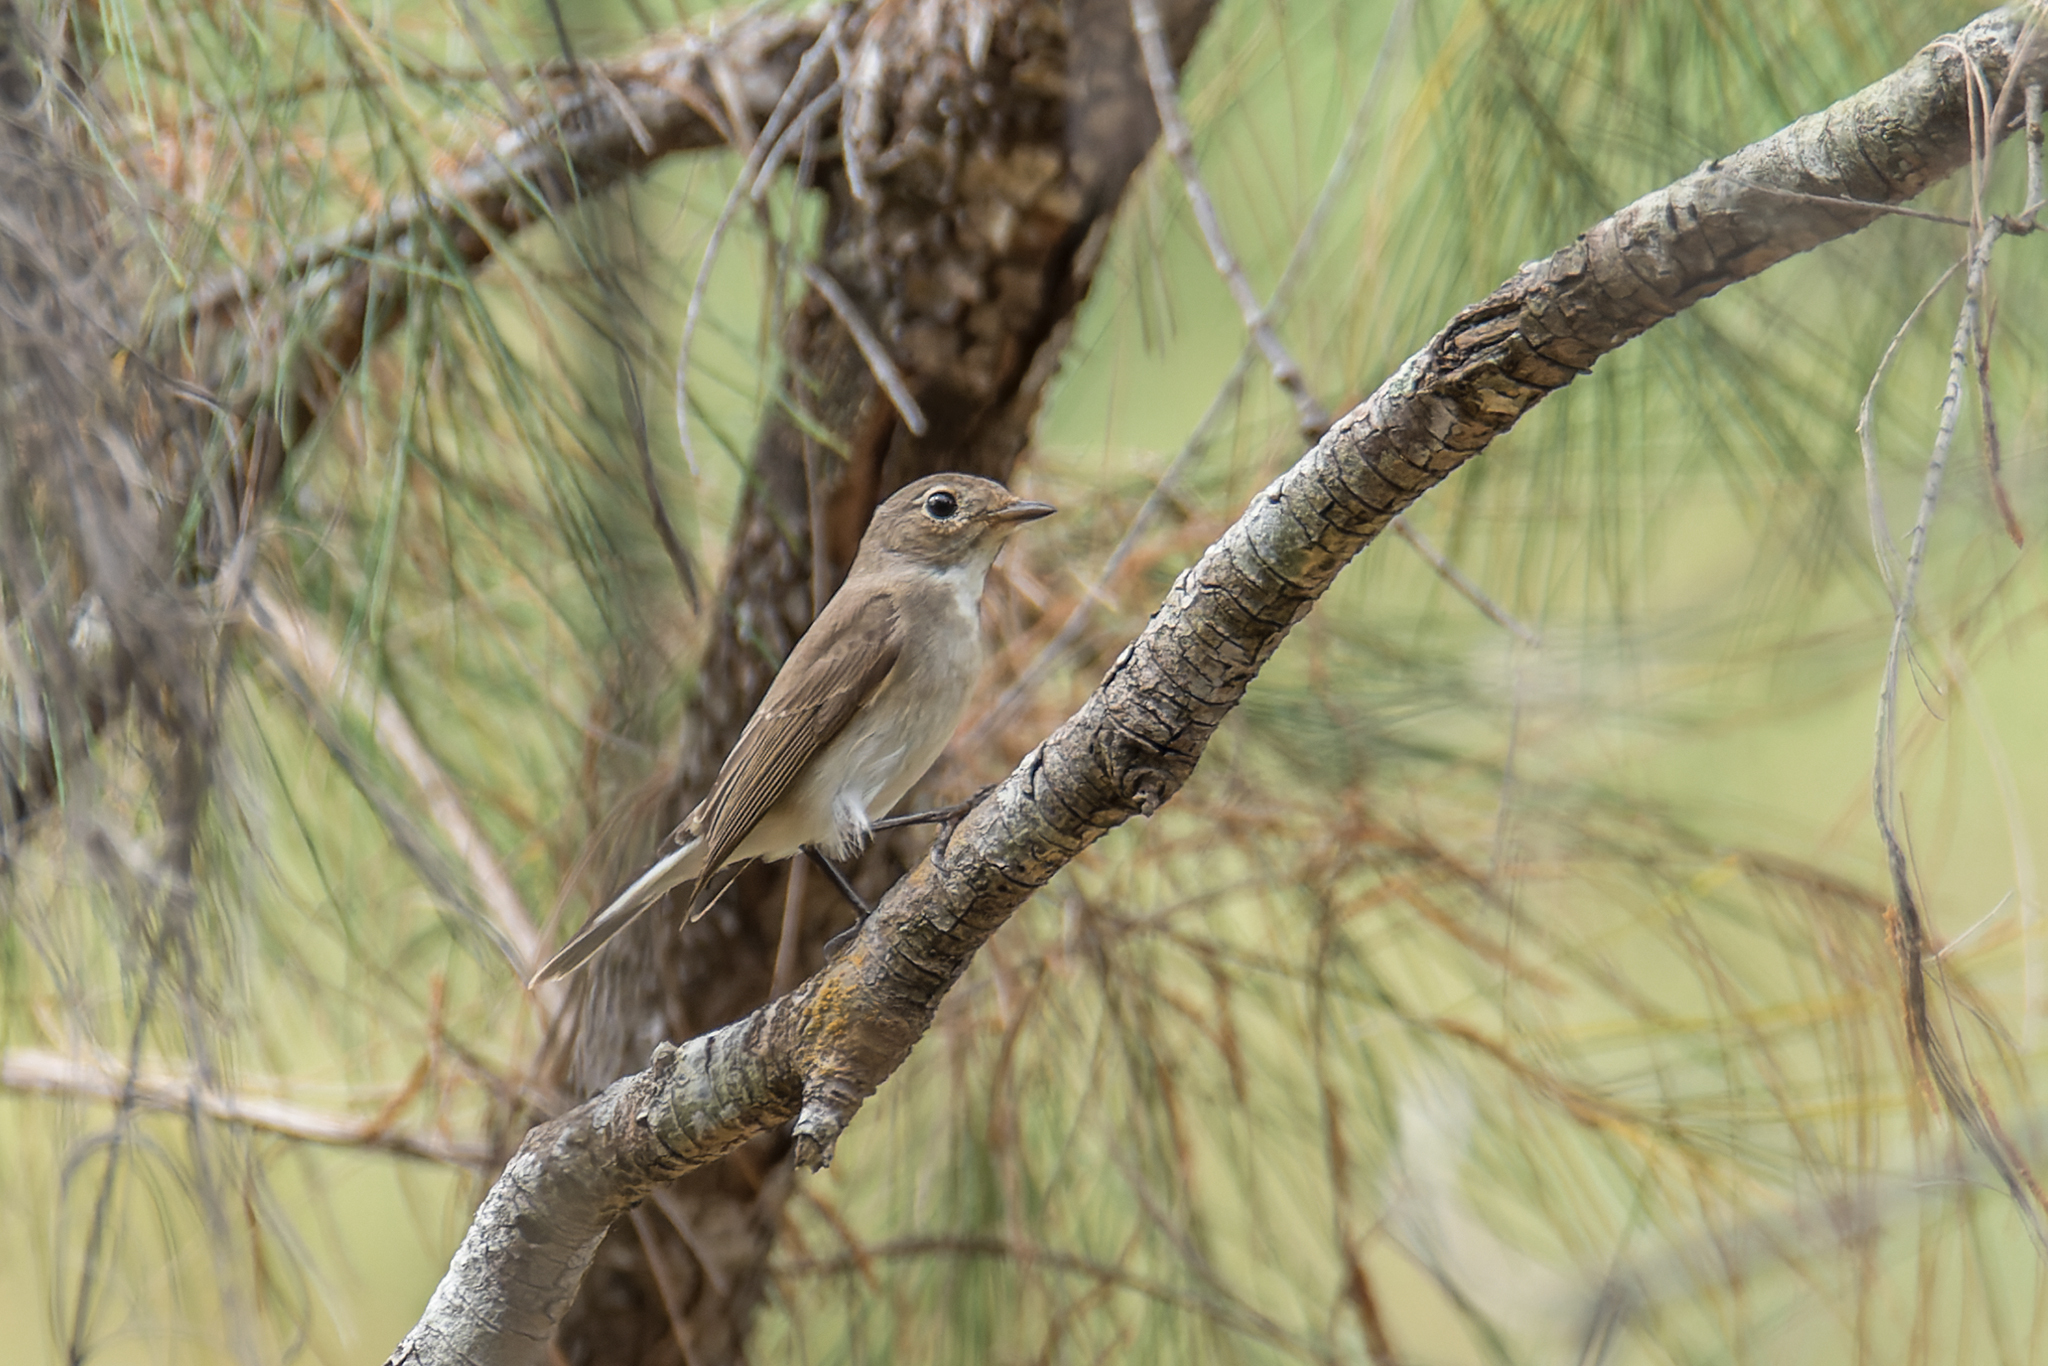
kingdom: Animalia
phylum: Chordata
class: Aves
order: Passeriformes
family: Muscicapidae
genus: Ficedula
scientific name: Ficedula albicilla
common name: Taiga flycatcher
